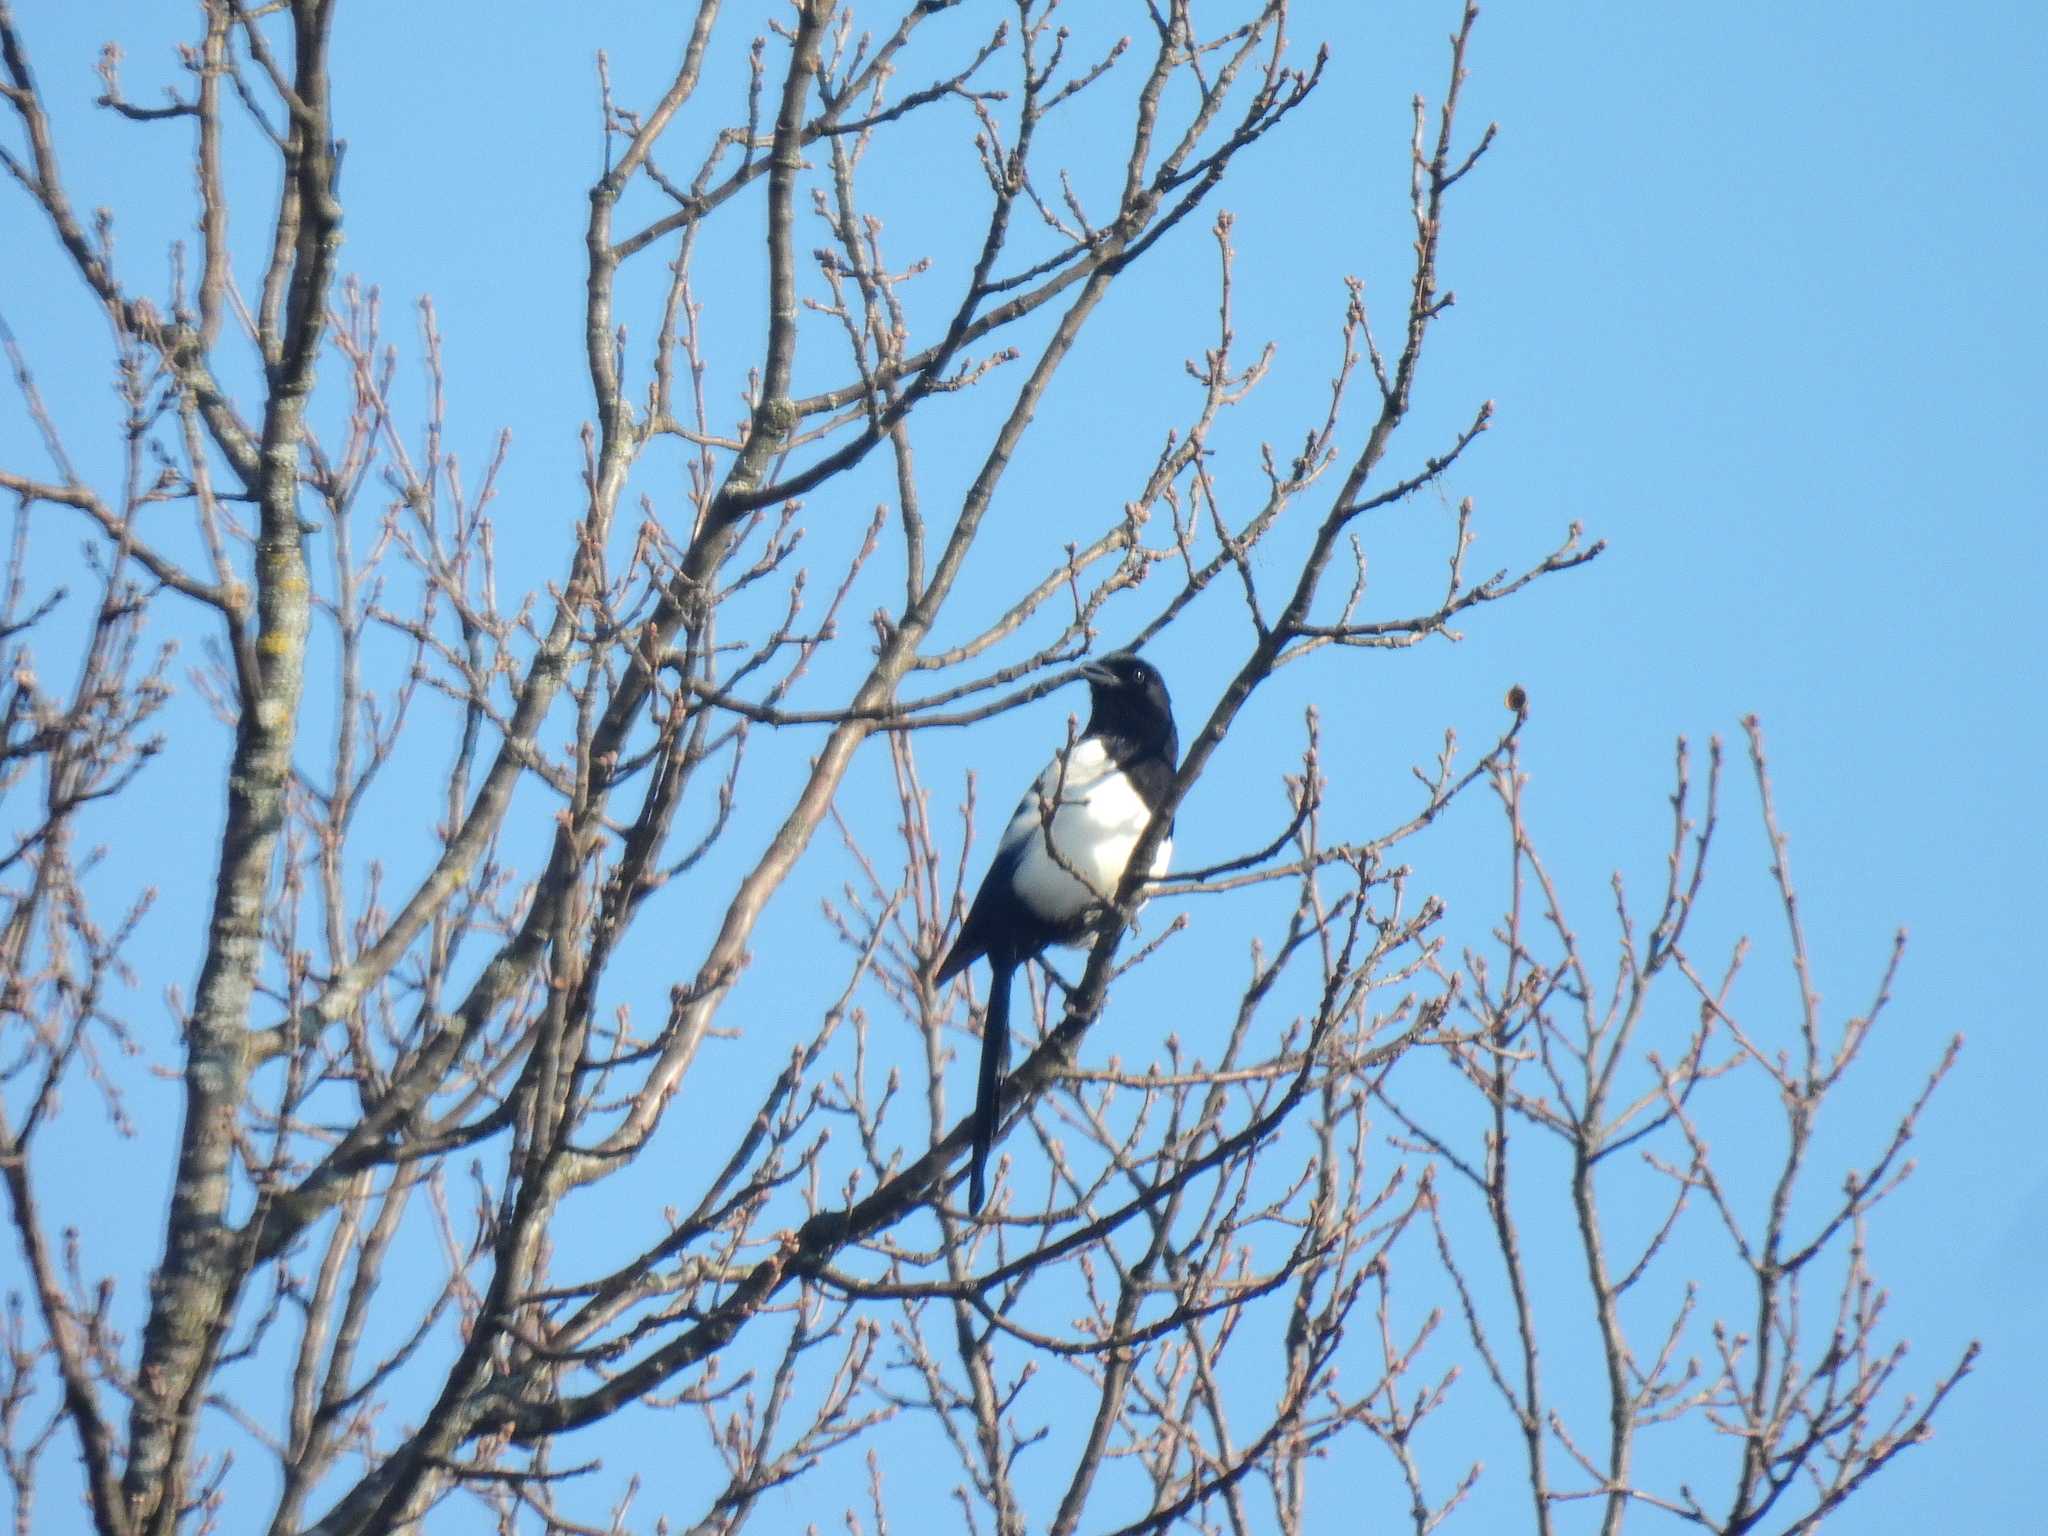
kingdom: Animalia
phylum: Chordata
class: Aves
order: Passeriformes
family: Corvidae
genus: Pica
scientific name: Pica pica
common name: Eurasian magpie
